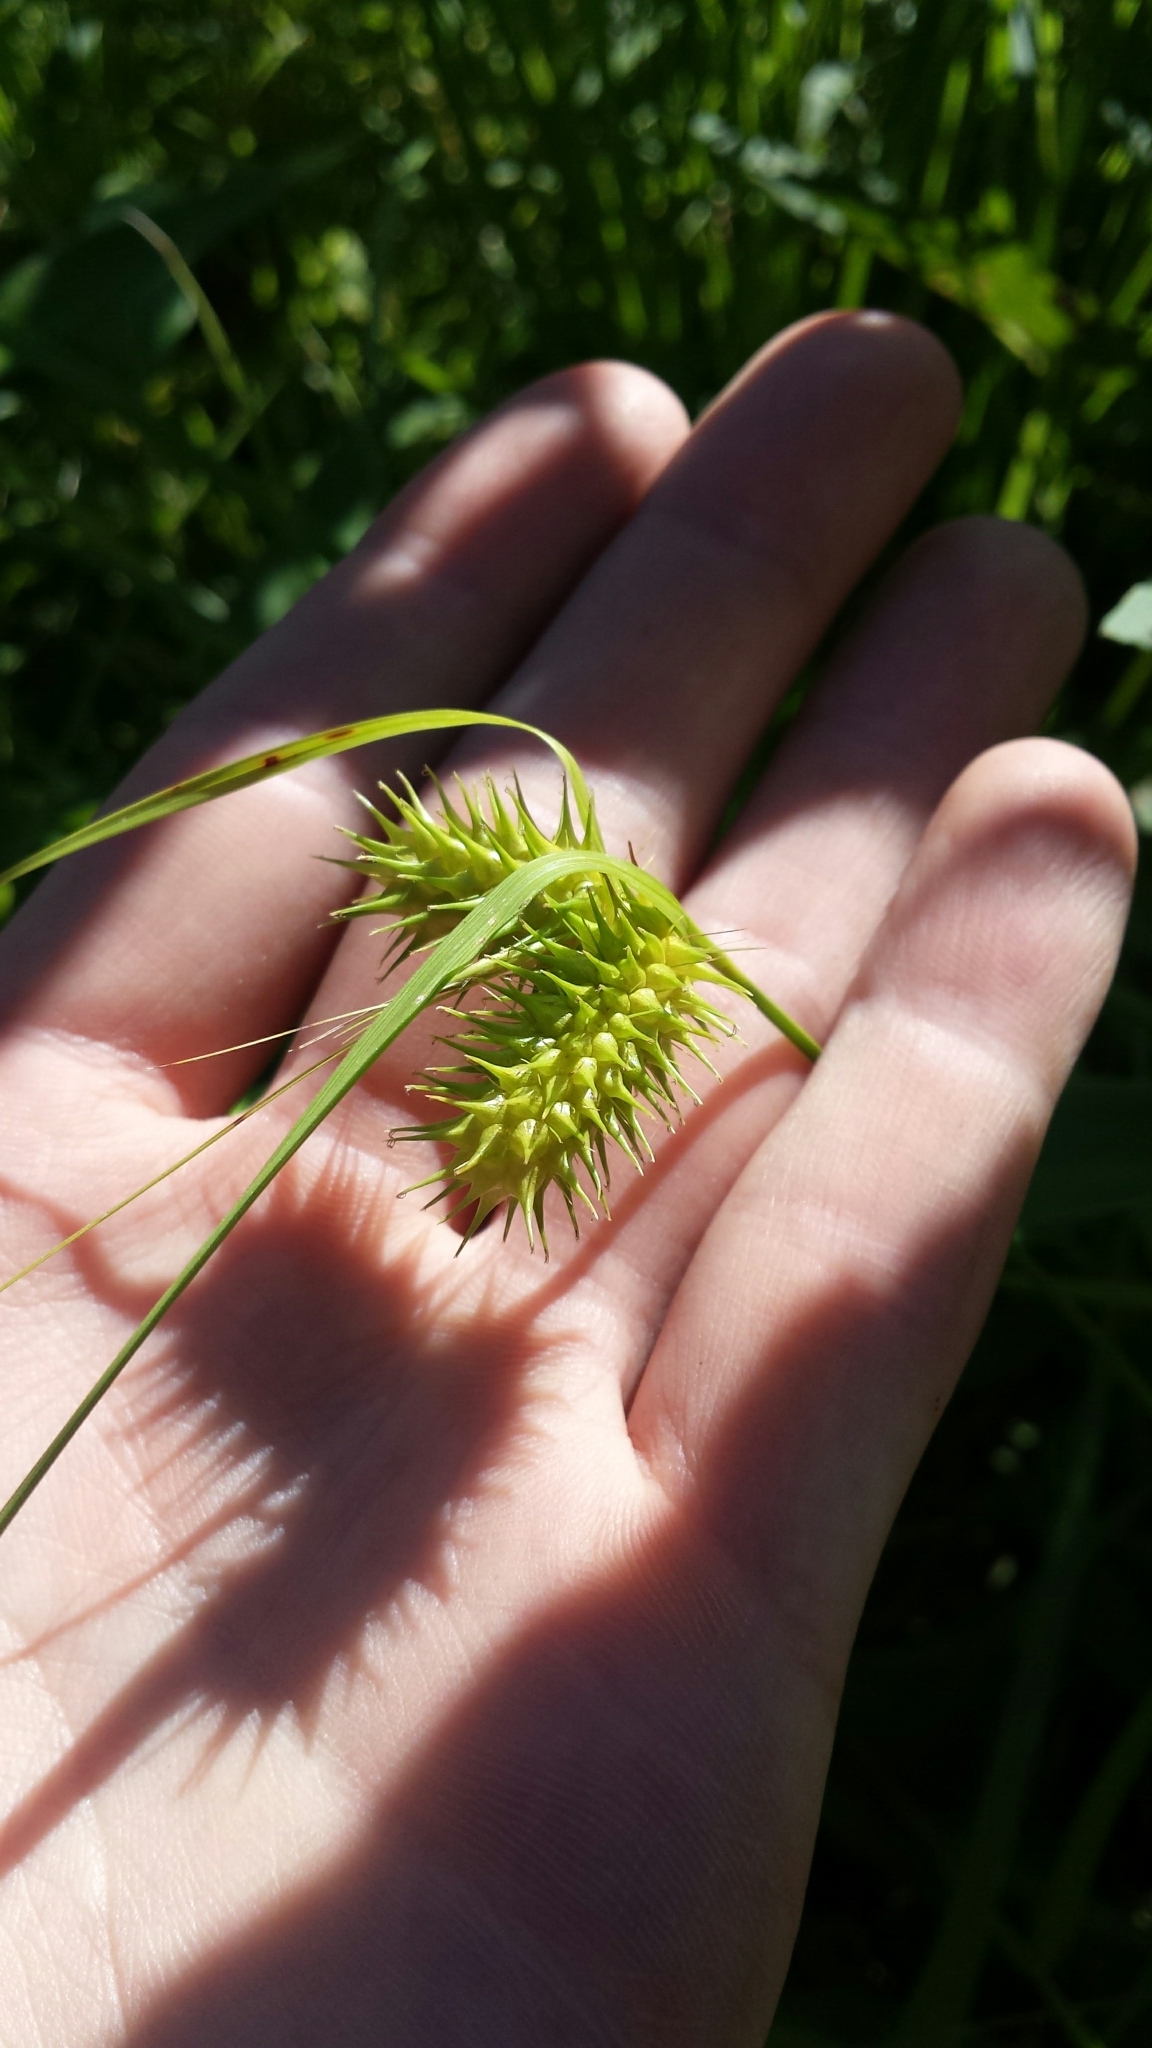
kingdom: Plantae
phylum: Tracheophyta
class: Liliopsida
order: Poales
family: Cyperaceae
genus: Carex
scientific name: Carex lurida
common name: Sallow sedge
